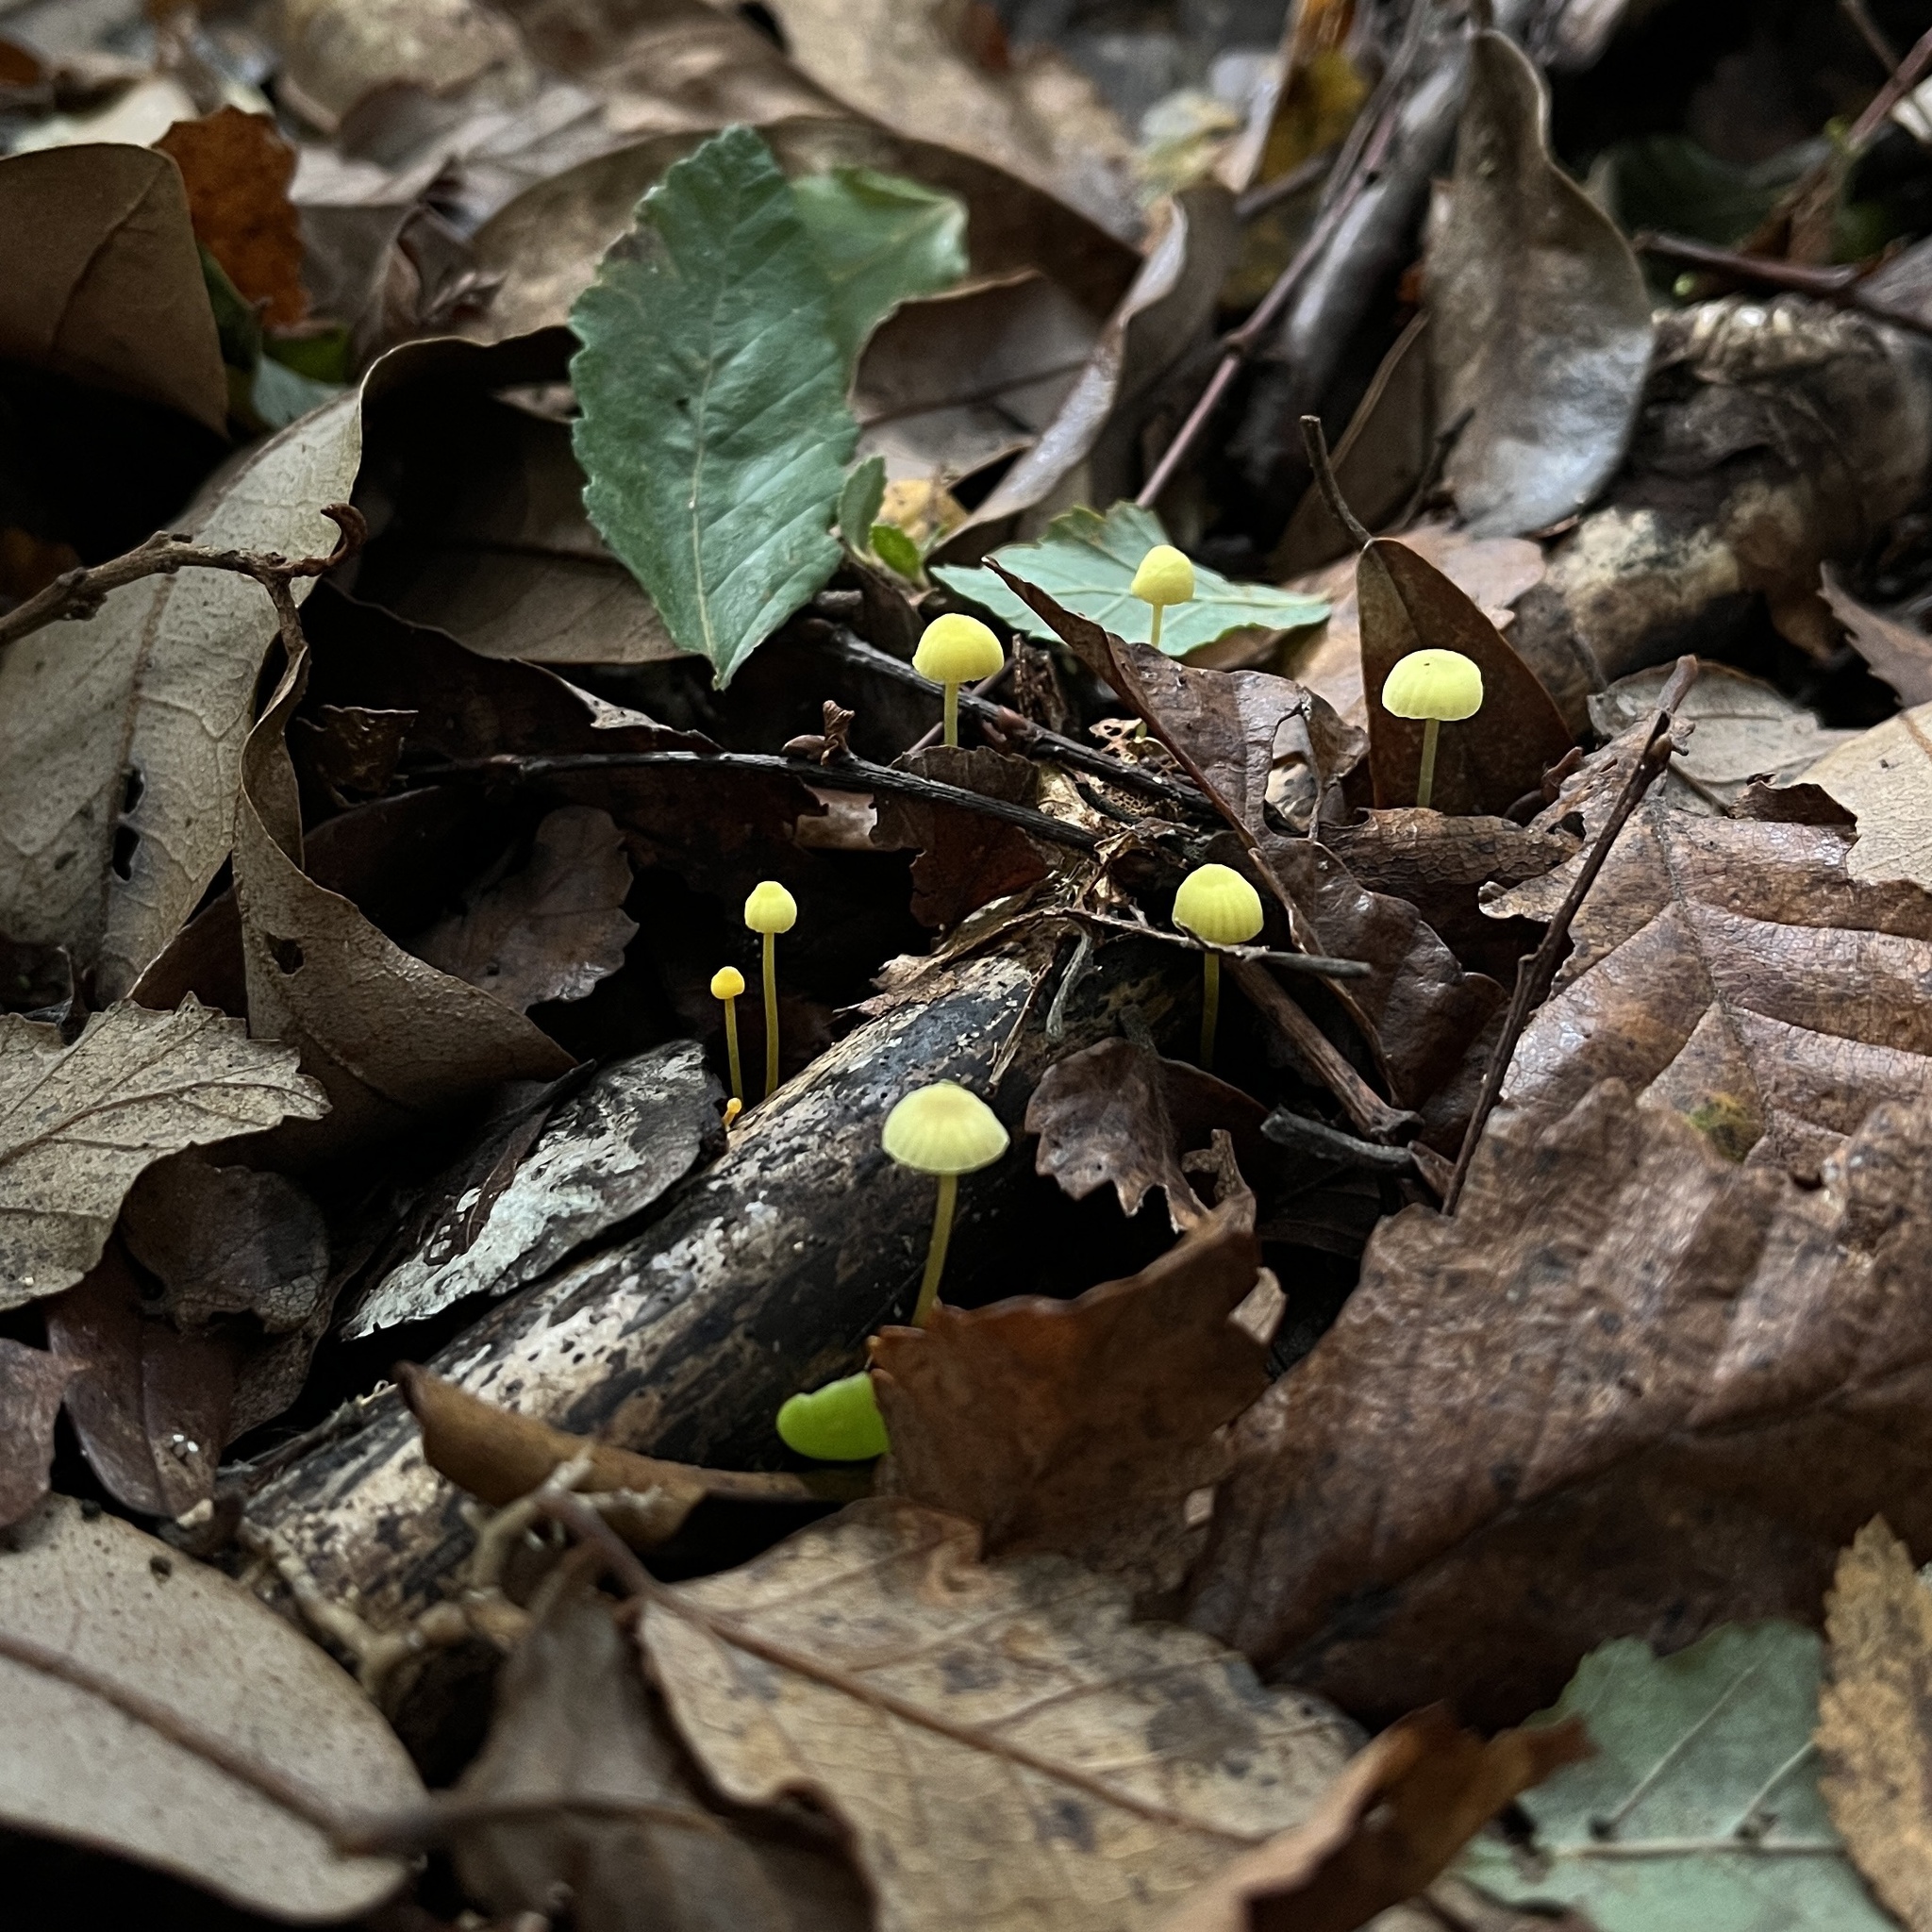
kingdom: Fungi
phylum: Basidiomycota
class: Agaricomycetes
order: Agaricales
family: Mycenaceae
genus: Mycena
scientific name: Mycena chusqueophila
